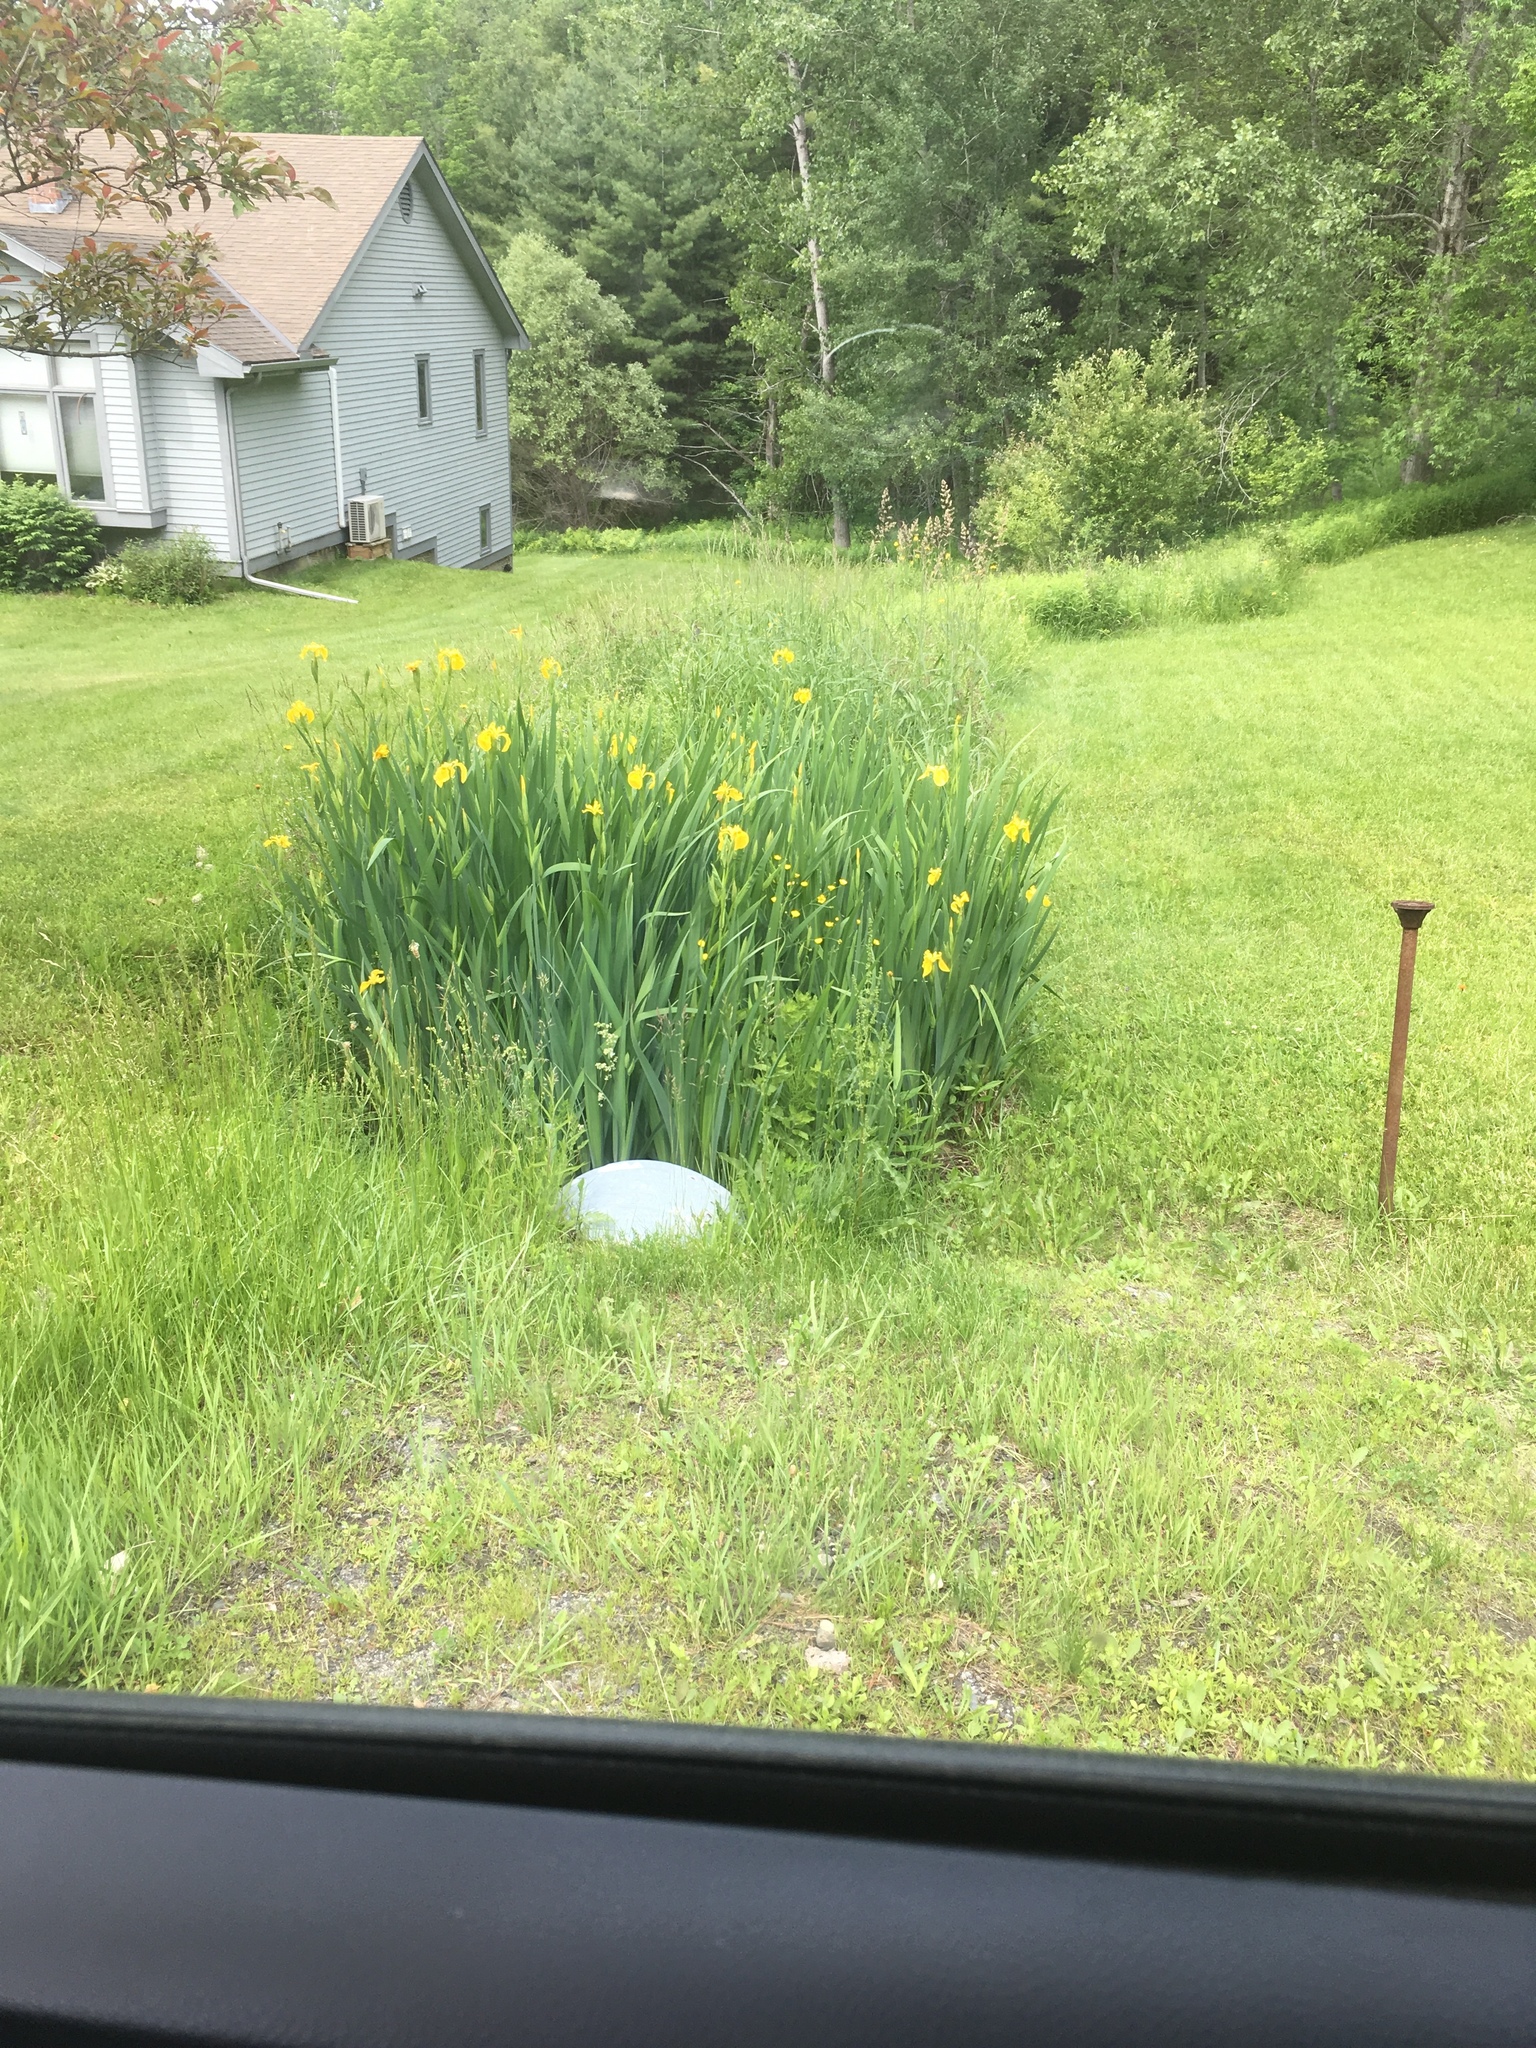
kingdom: Plantae
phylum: Tracheophyta
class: Liliopsida
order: Asparagales
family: Iridaceae
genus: Iris
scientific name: Iris pseudacorus
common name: Yellow flag
